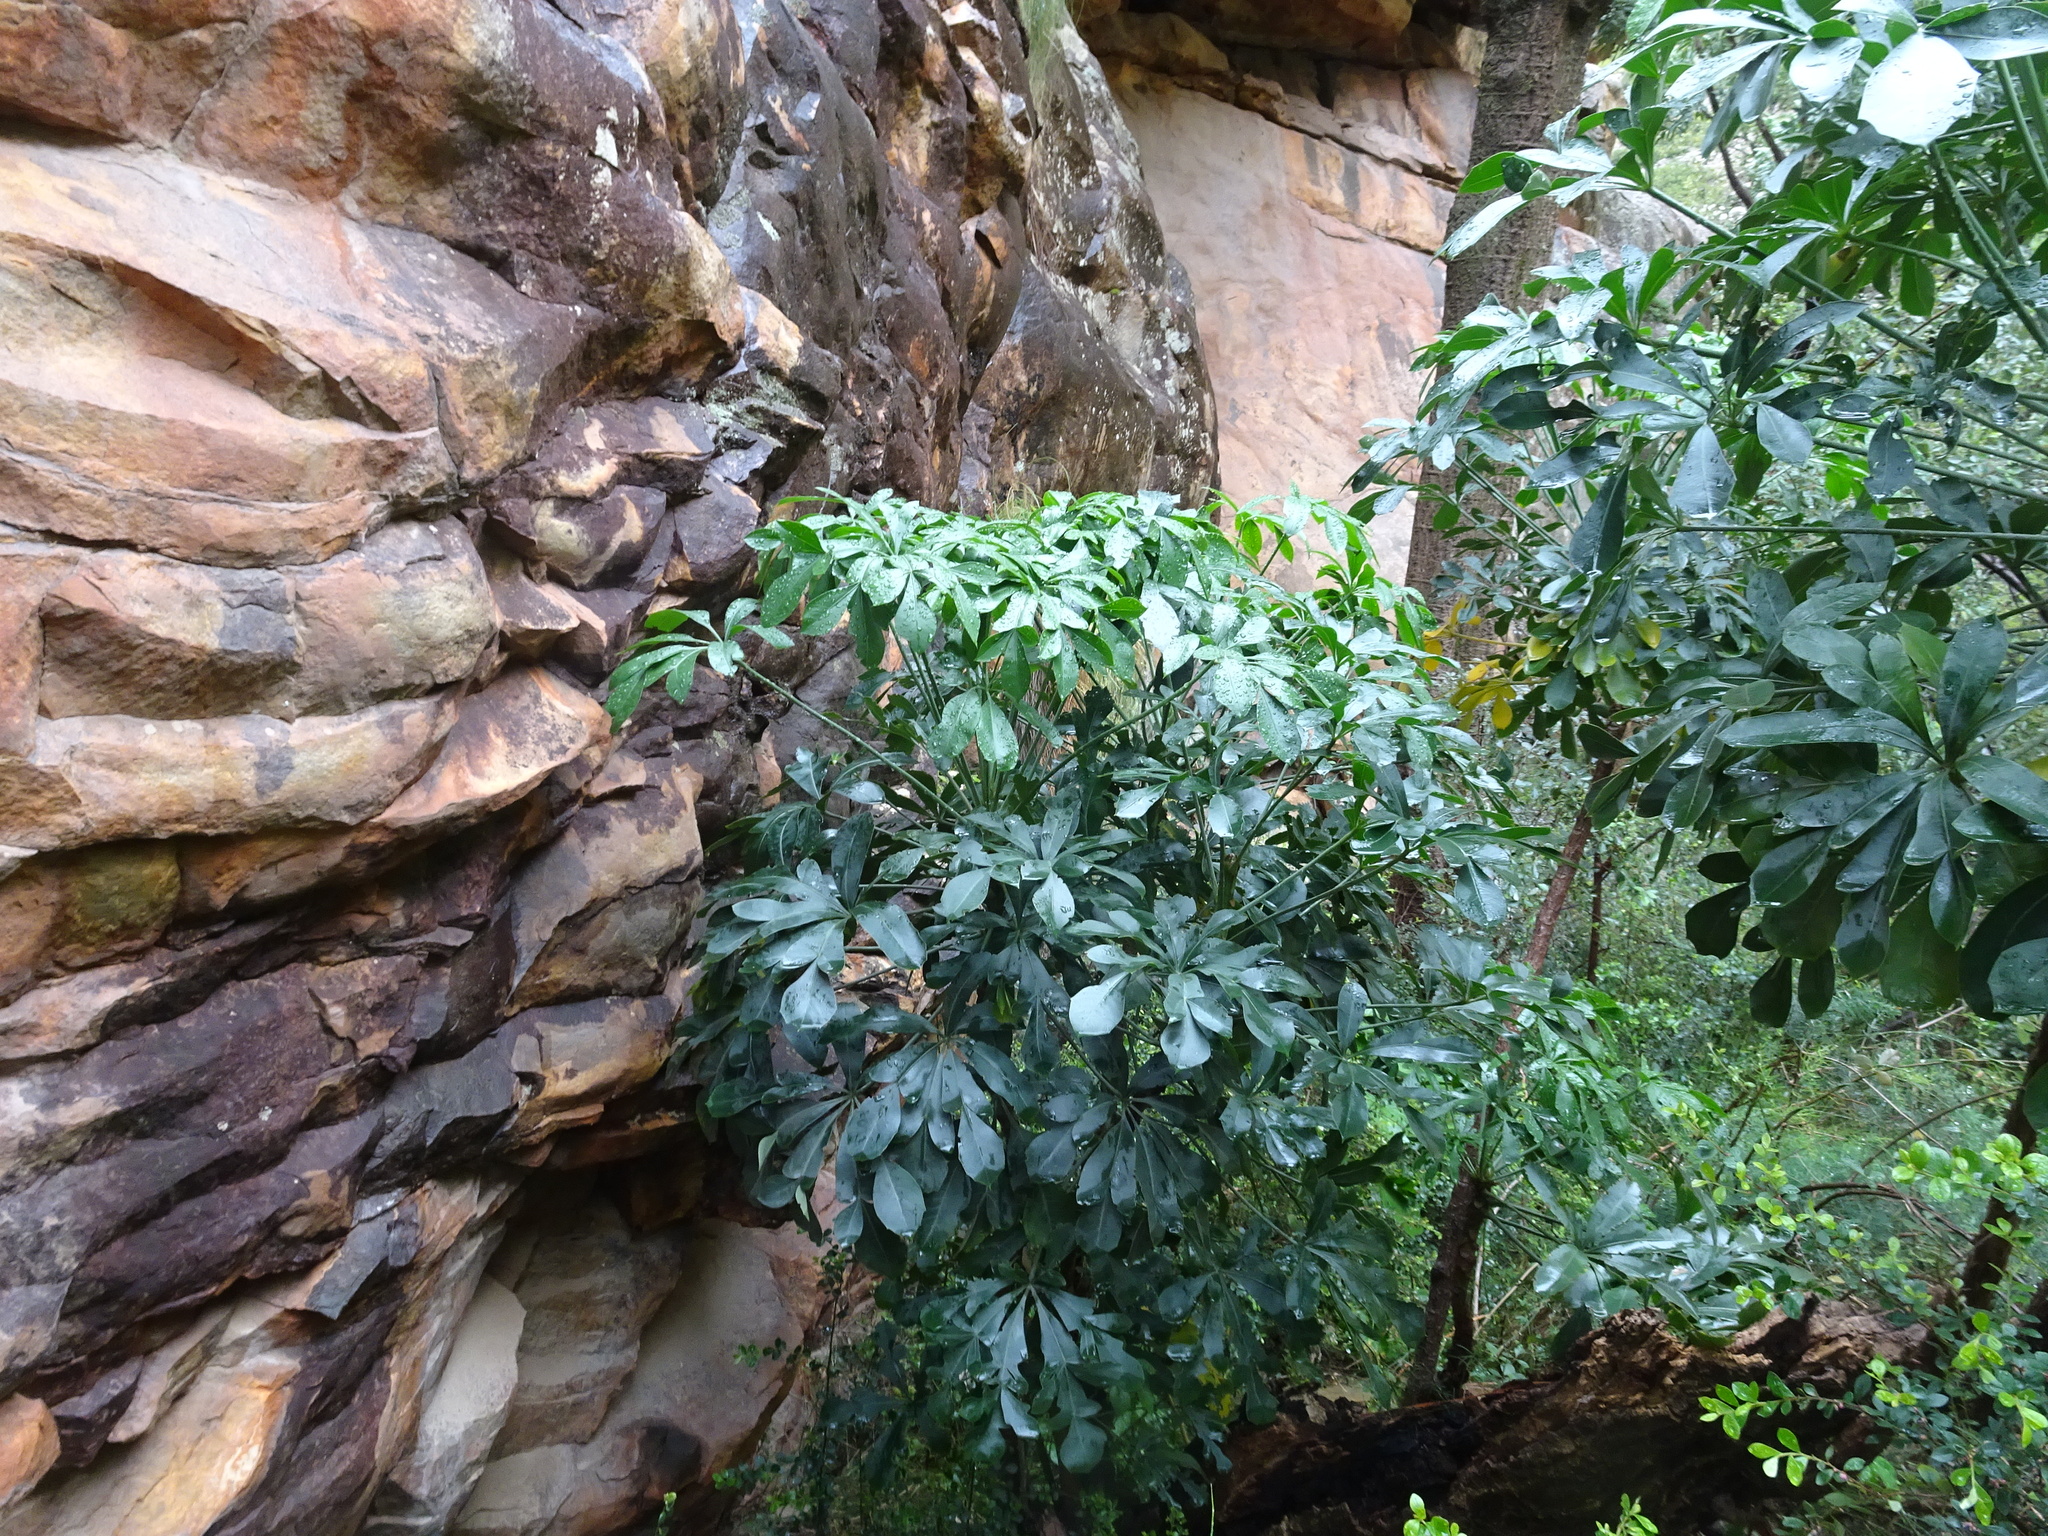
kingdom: Plantae
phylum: Tracheophyta
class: Magnoliopsida
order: Apiales
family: Araliaceae
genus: Cussonia
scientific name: Cussonia spicata
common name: Common cabbagetree
